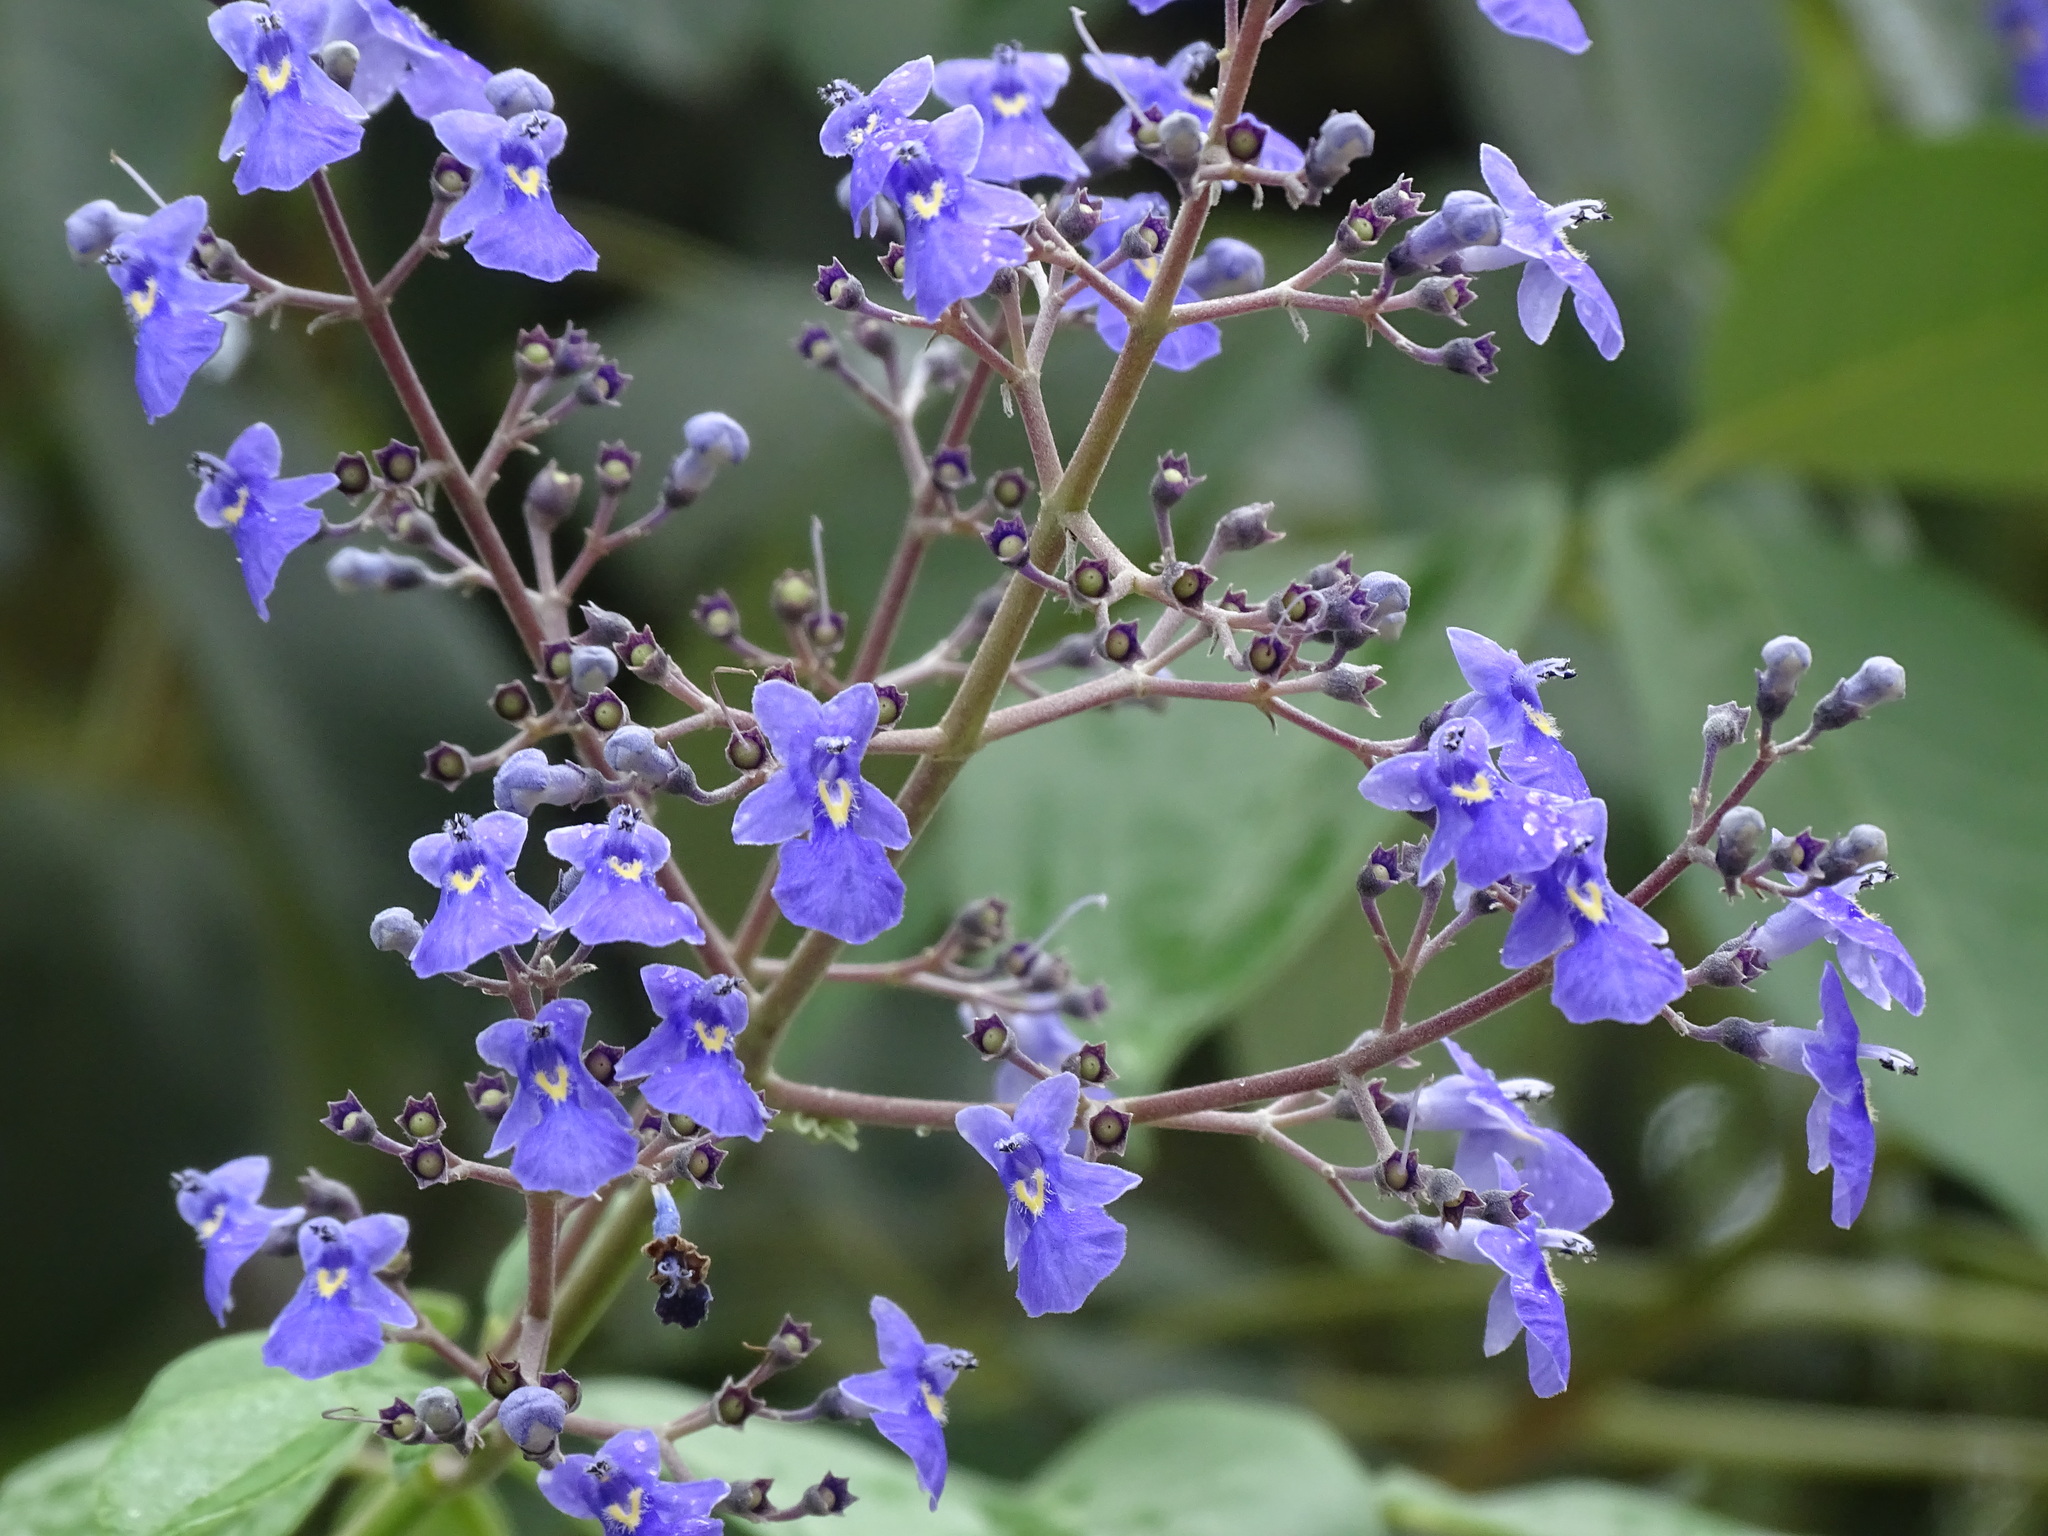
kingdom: Plantae
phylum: Tracheophyta
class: Magnoliopsida
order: Lamiales
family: Lamiaceae
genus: Vitex
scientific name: Vitex gaumeri
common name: Fiddlewood
